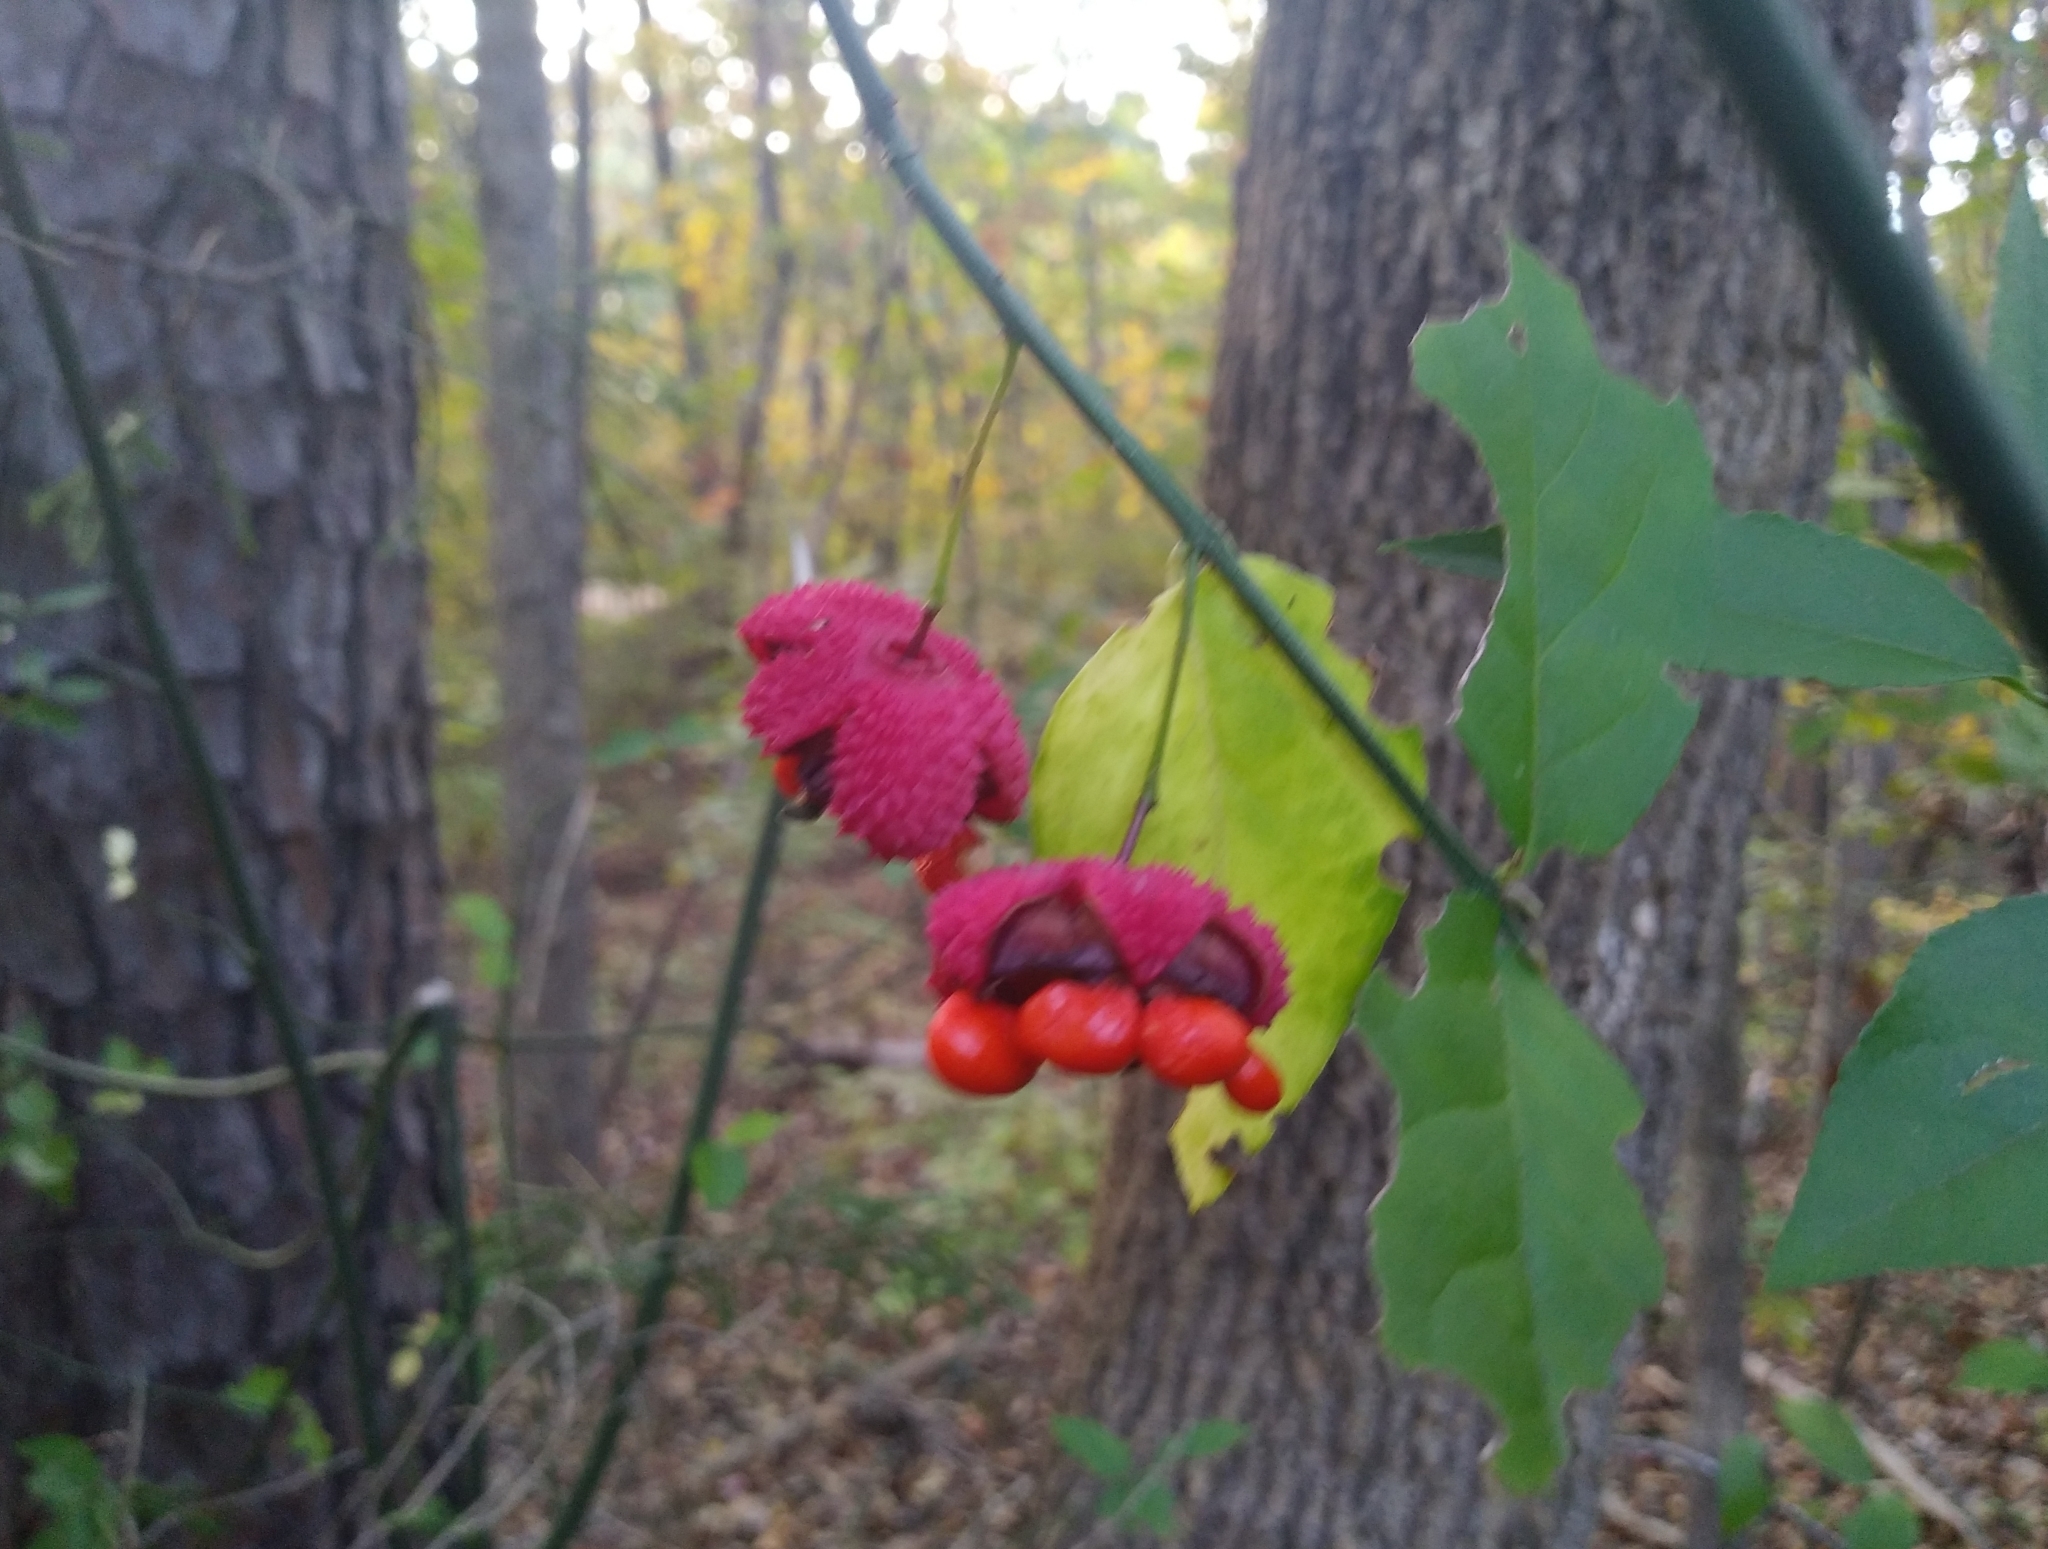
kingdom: Plantae
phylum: Tracheophyta
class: Magnoliopsida
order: Celastrales
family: Celastraceae
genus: Euonymus
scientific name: Euonymus americanus
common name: Bursting-heart
